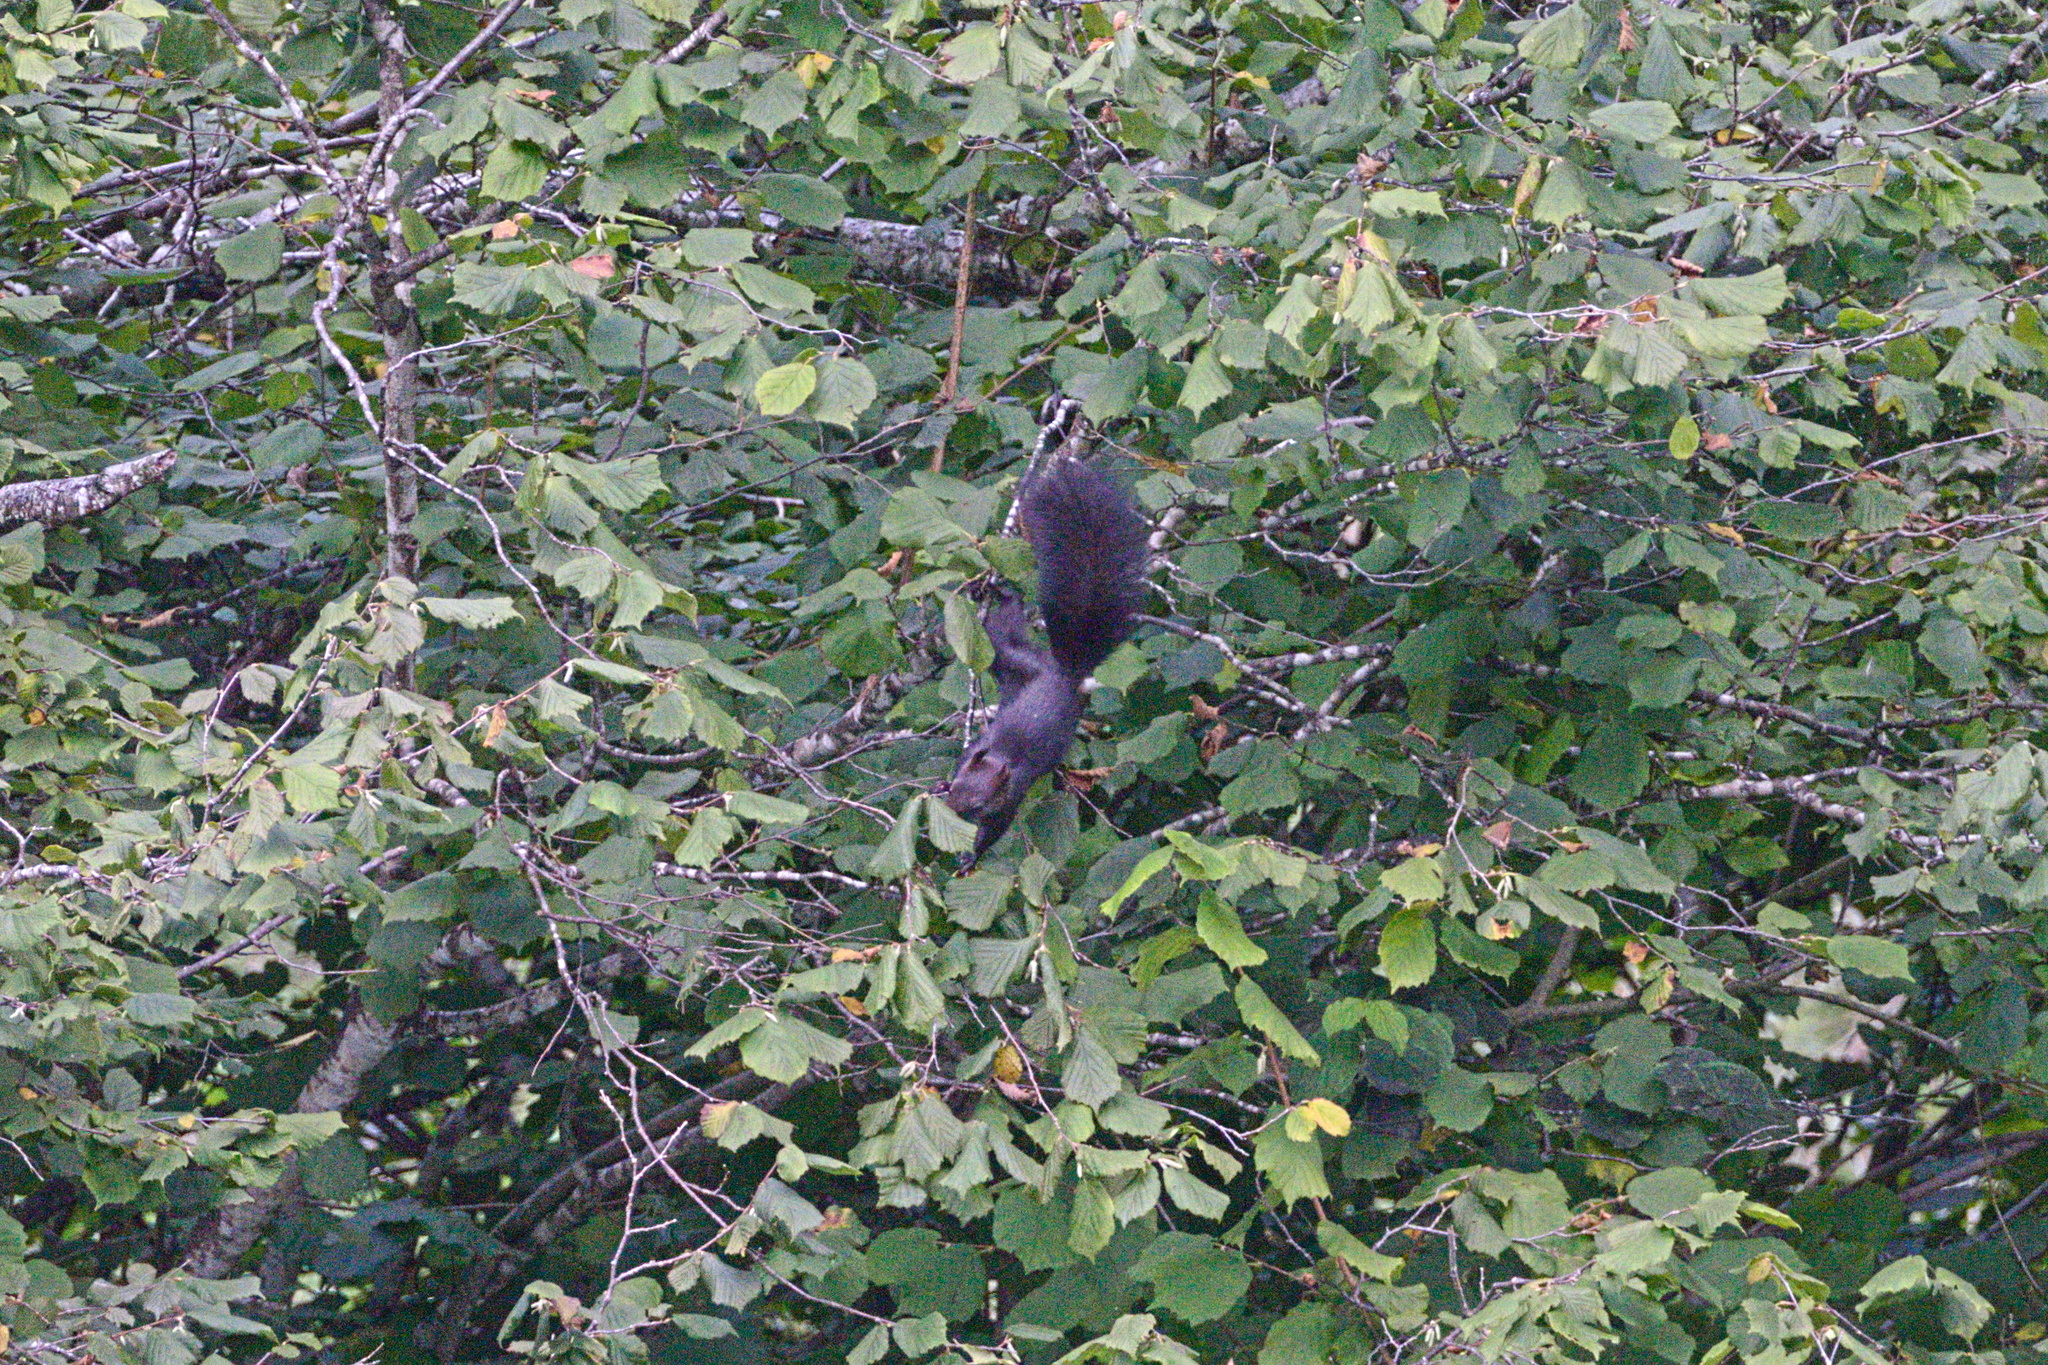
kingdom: Animalia
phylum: Chordata
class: Mammalia
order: Rodentia
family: Sciuridae
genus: Sciurus
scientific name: Sciurus vulgaris
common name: Eurasian red squirrel
